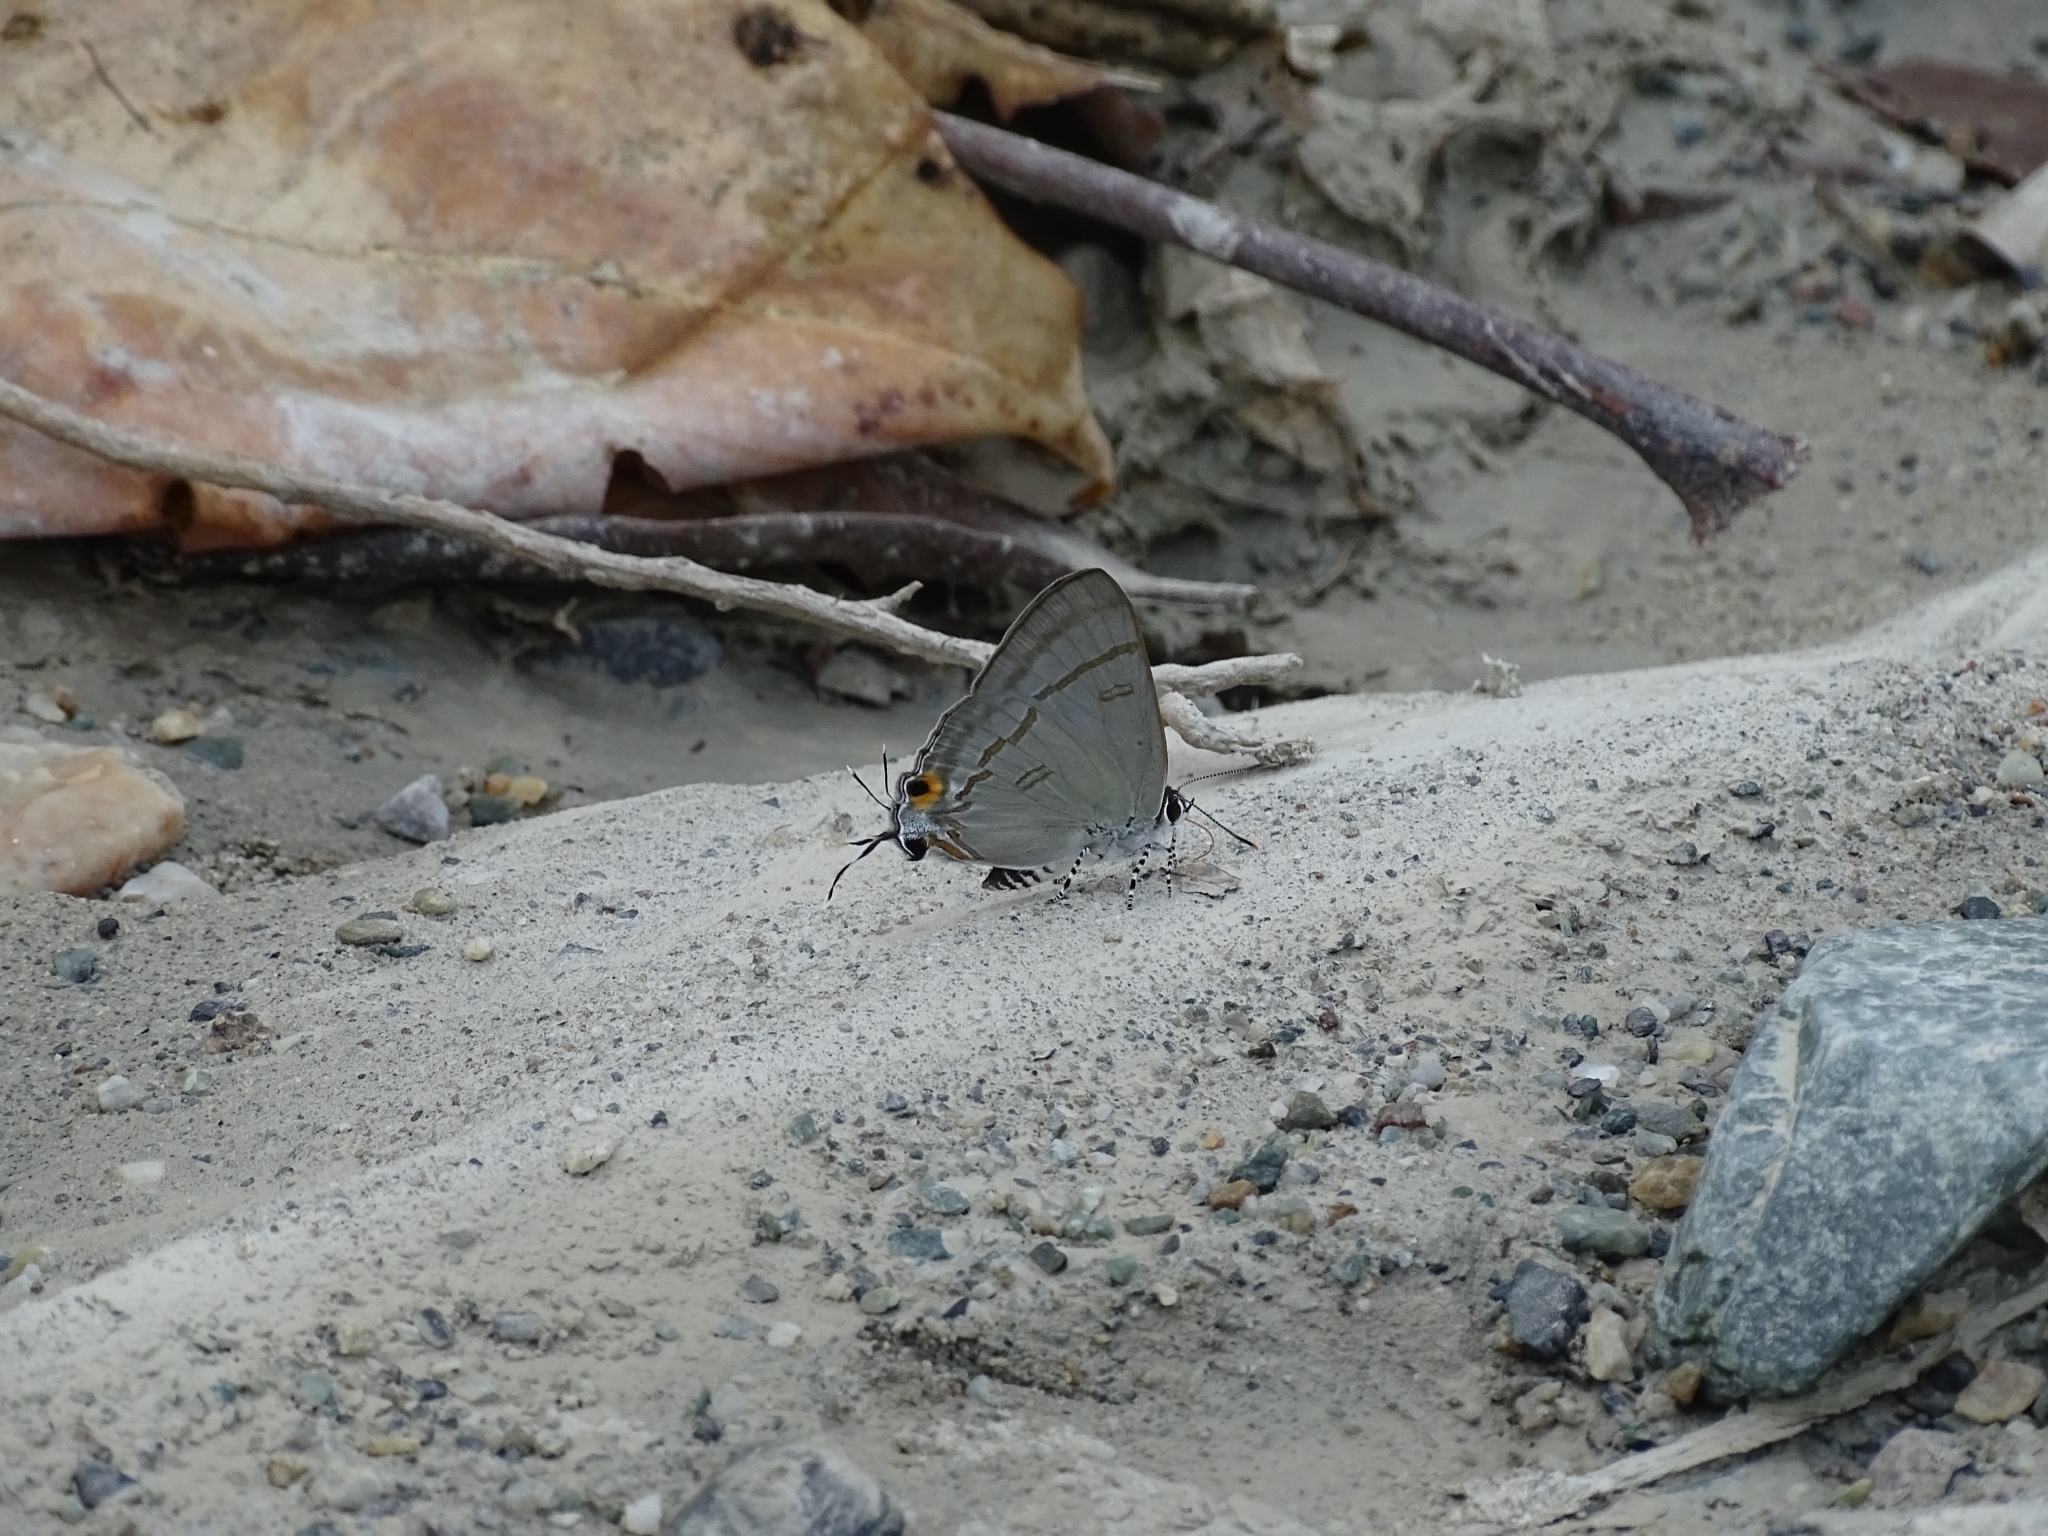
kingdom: Animalia
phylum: Arthropoda
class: Insecta
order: Lepidoptera
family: Lycaenidae
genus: Hypolycaena
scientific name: Hypolycaena erylus
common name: Common tit
